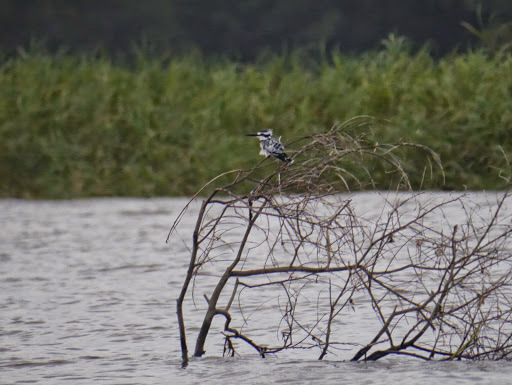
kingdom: Animalia
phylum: Chordata
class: Aves
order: Coraciiformes
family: Alcedinidae
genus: Ceryle
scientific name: Ceryle rudis
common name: Pied kingfisher
